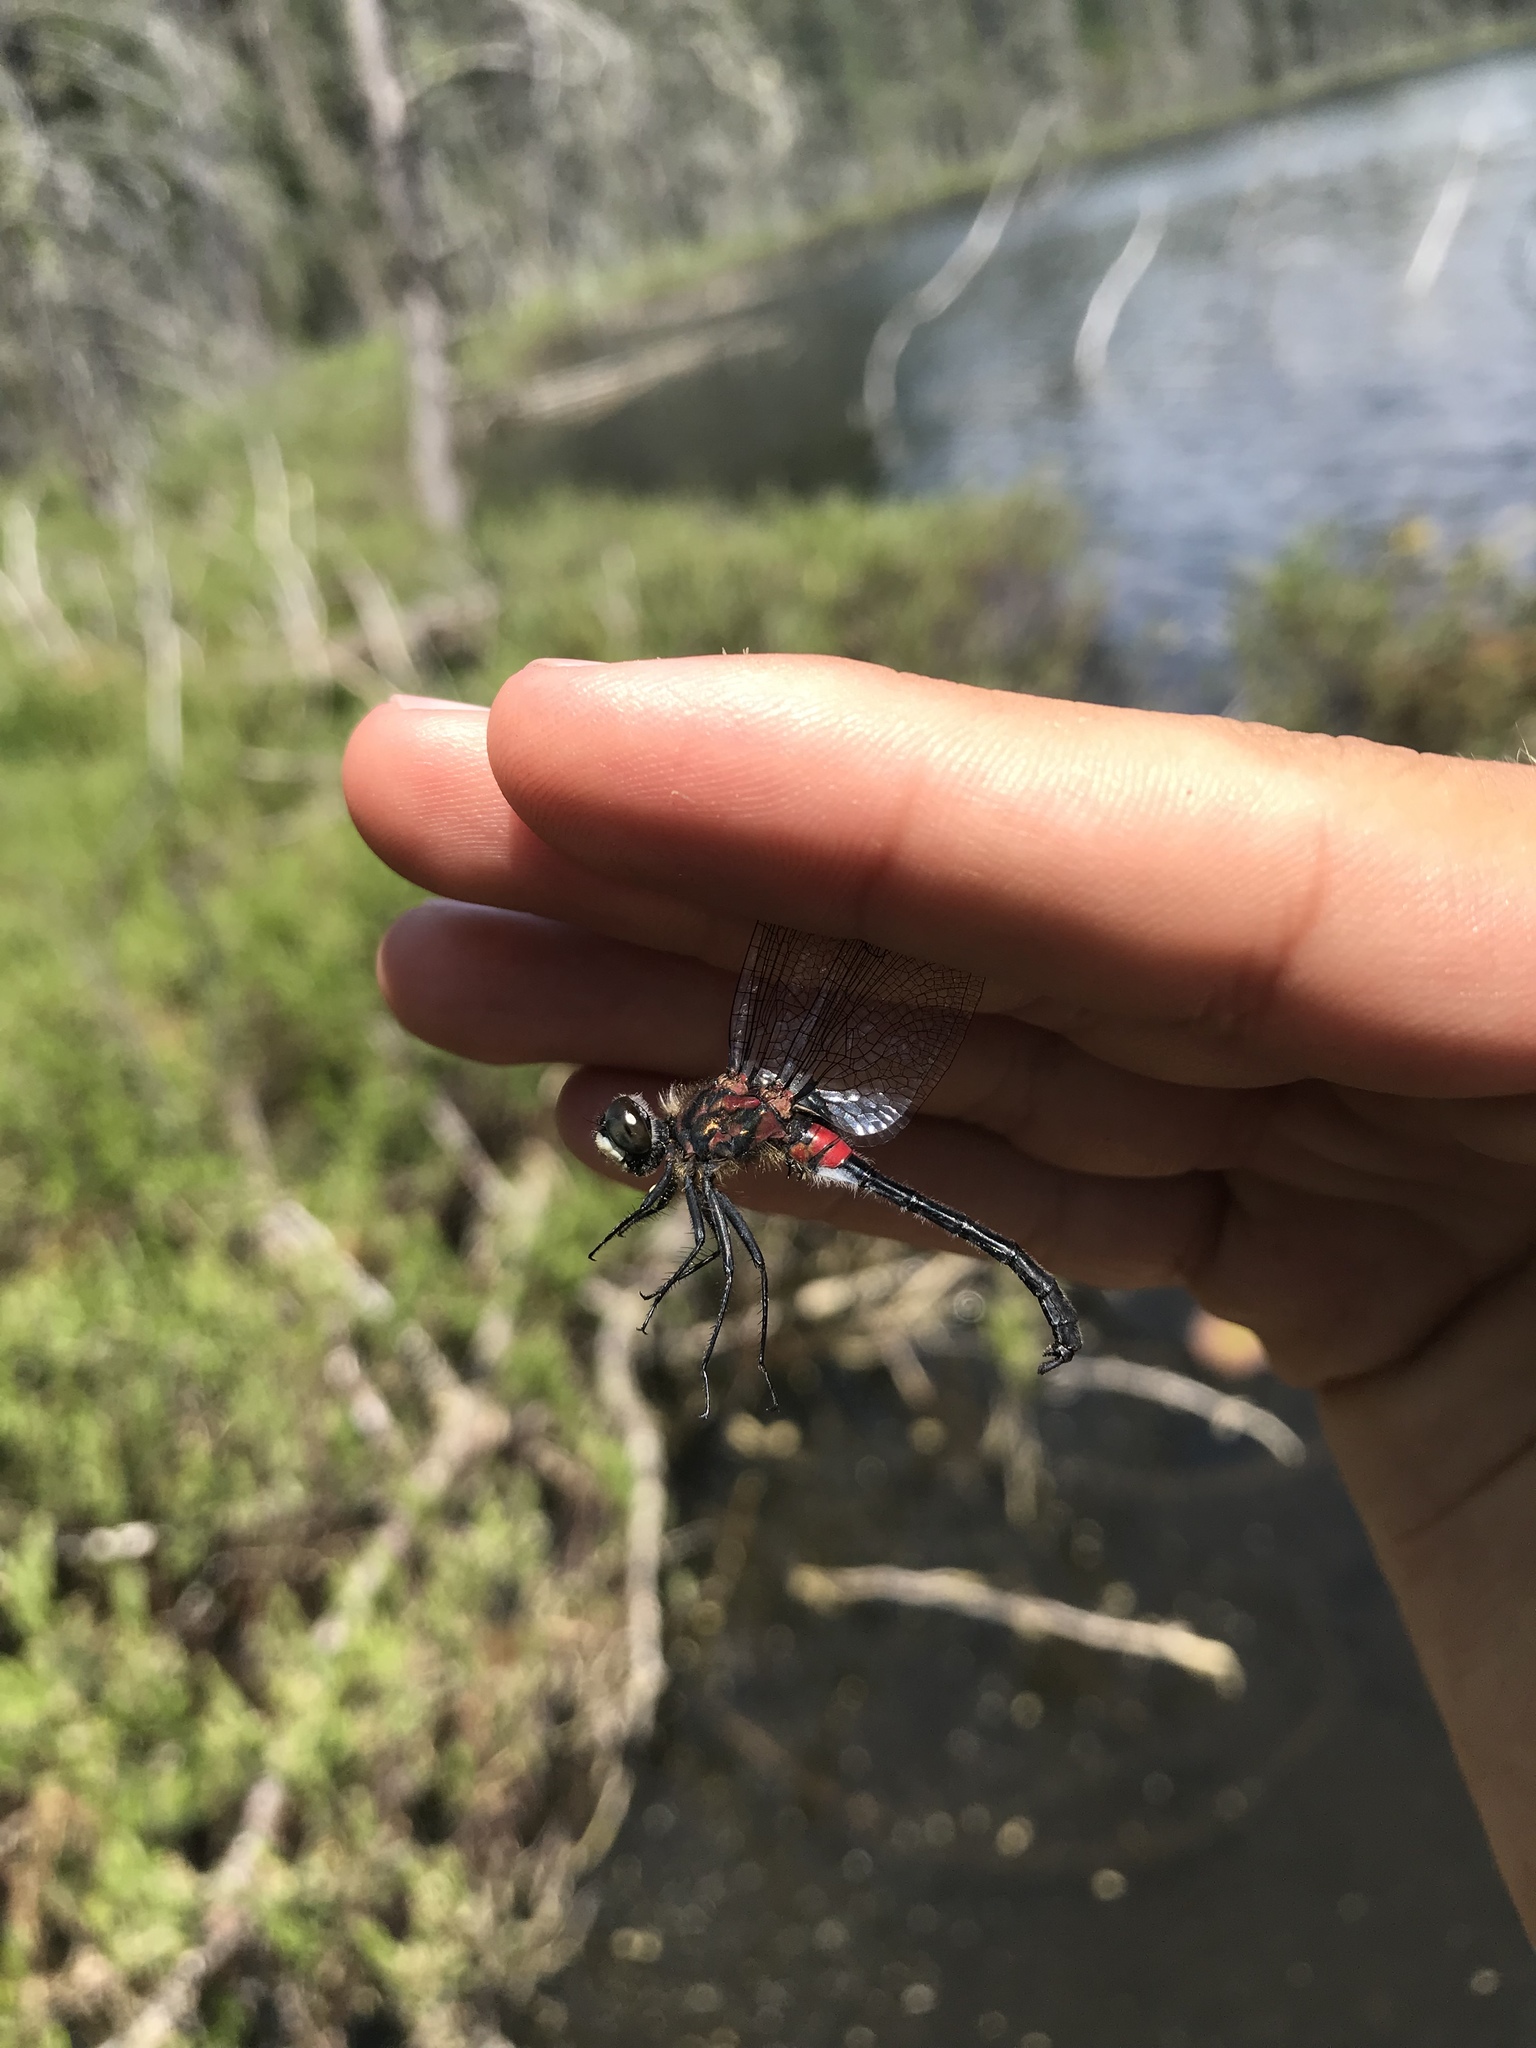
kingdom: Animalia
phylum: Arthropoda
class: Insecta
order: Odonata
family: Libellulidae
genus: Leucorrhinia
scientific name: Leucorrhinia glacialis
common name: Crimson-ringed whiteface
